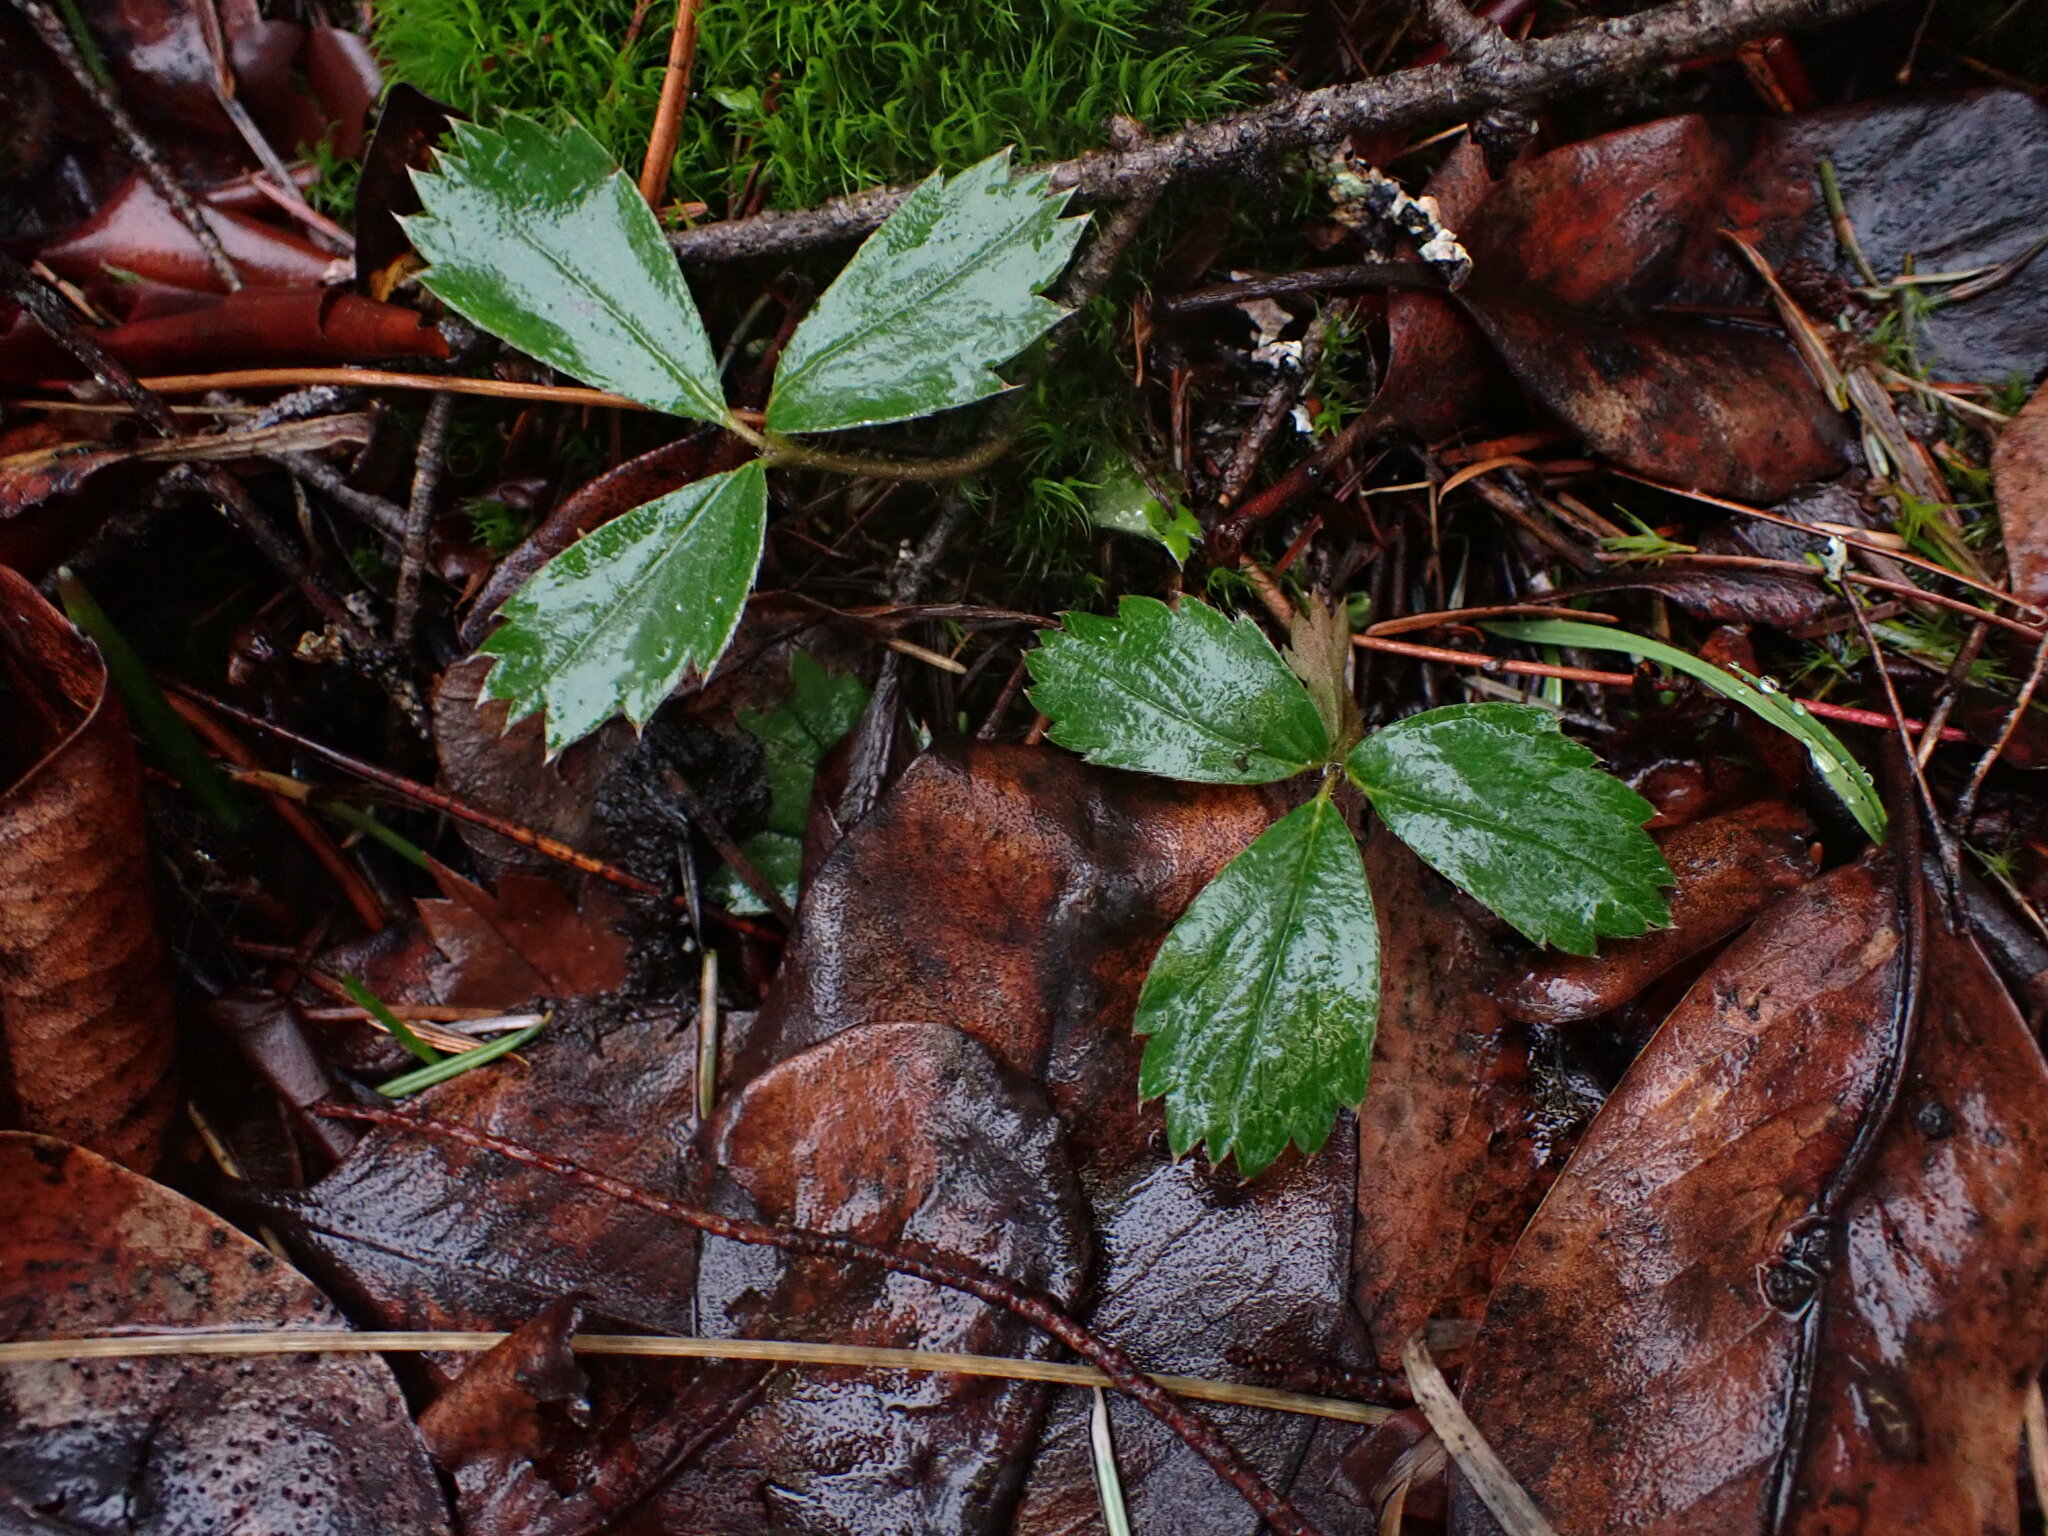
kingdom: Plantae
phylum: Tracheophyta
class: Magnoliopsida
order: Rosales
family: Rosaceae
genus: Fragaria
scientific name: Fragaria virginiana
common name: Thickleaved wild strawberry
